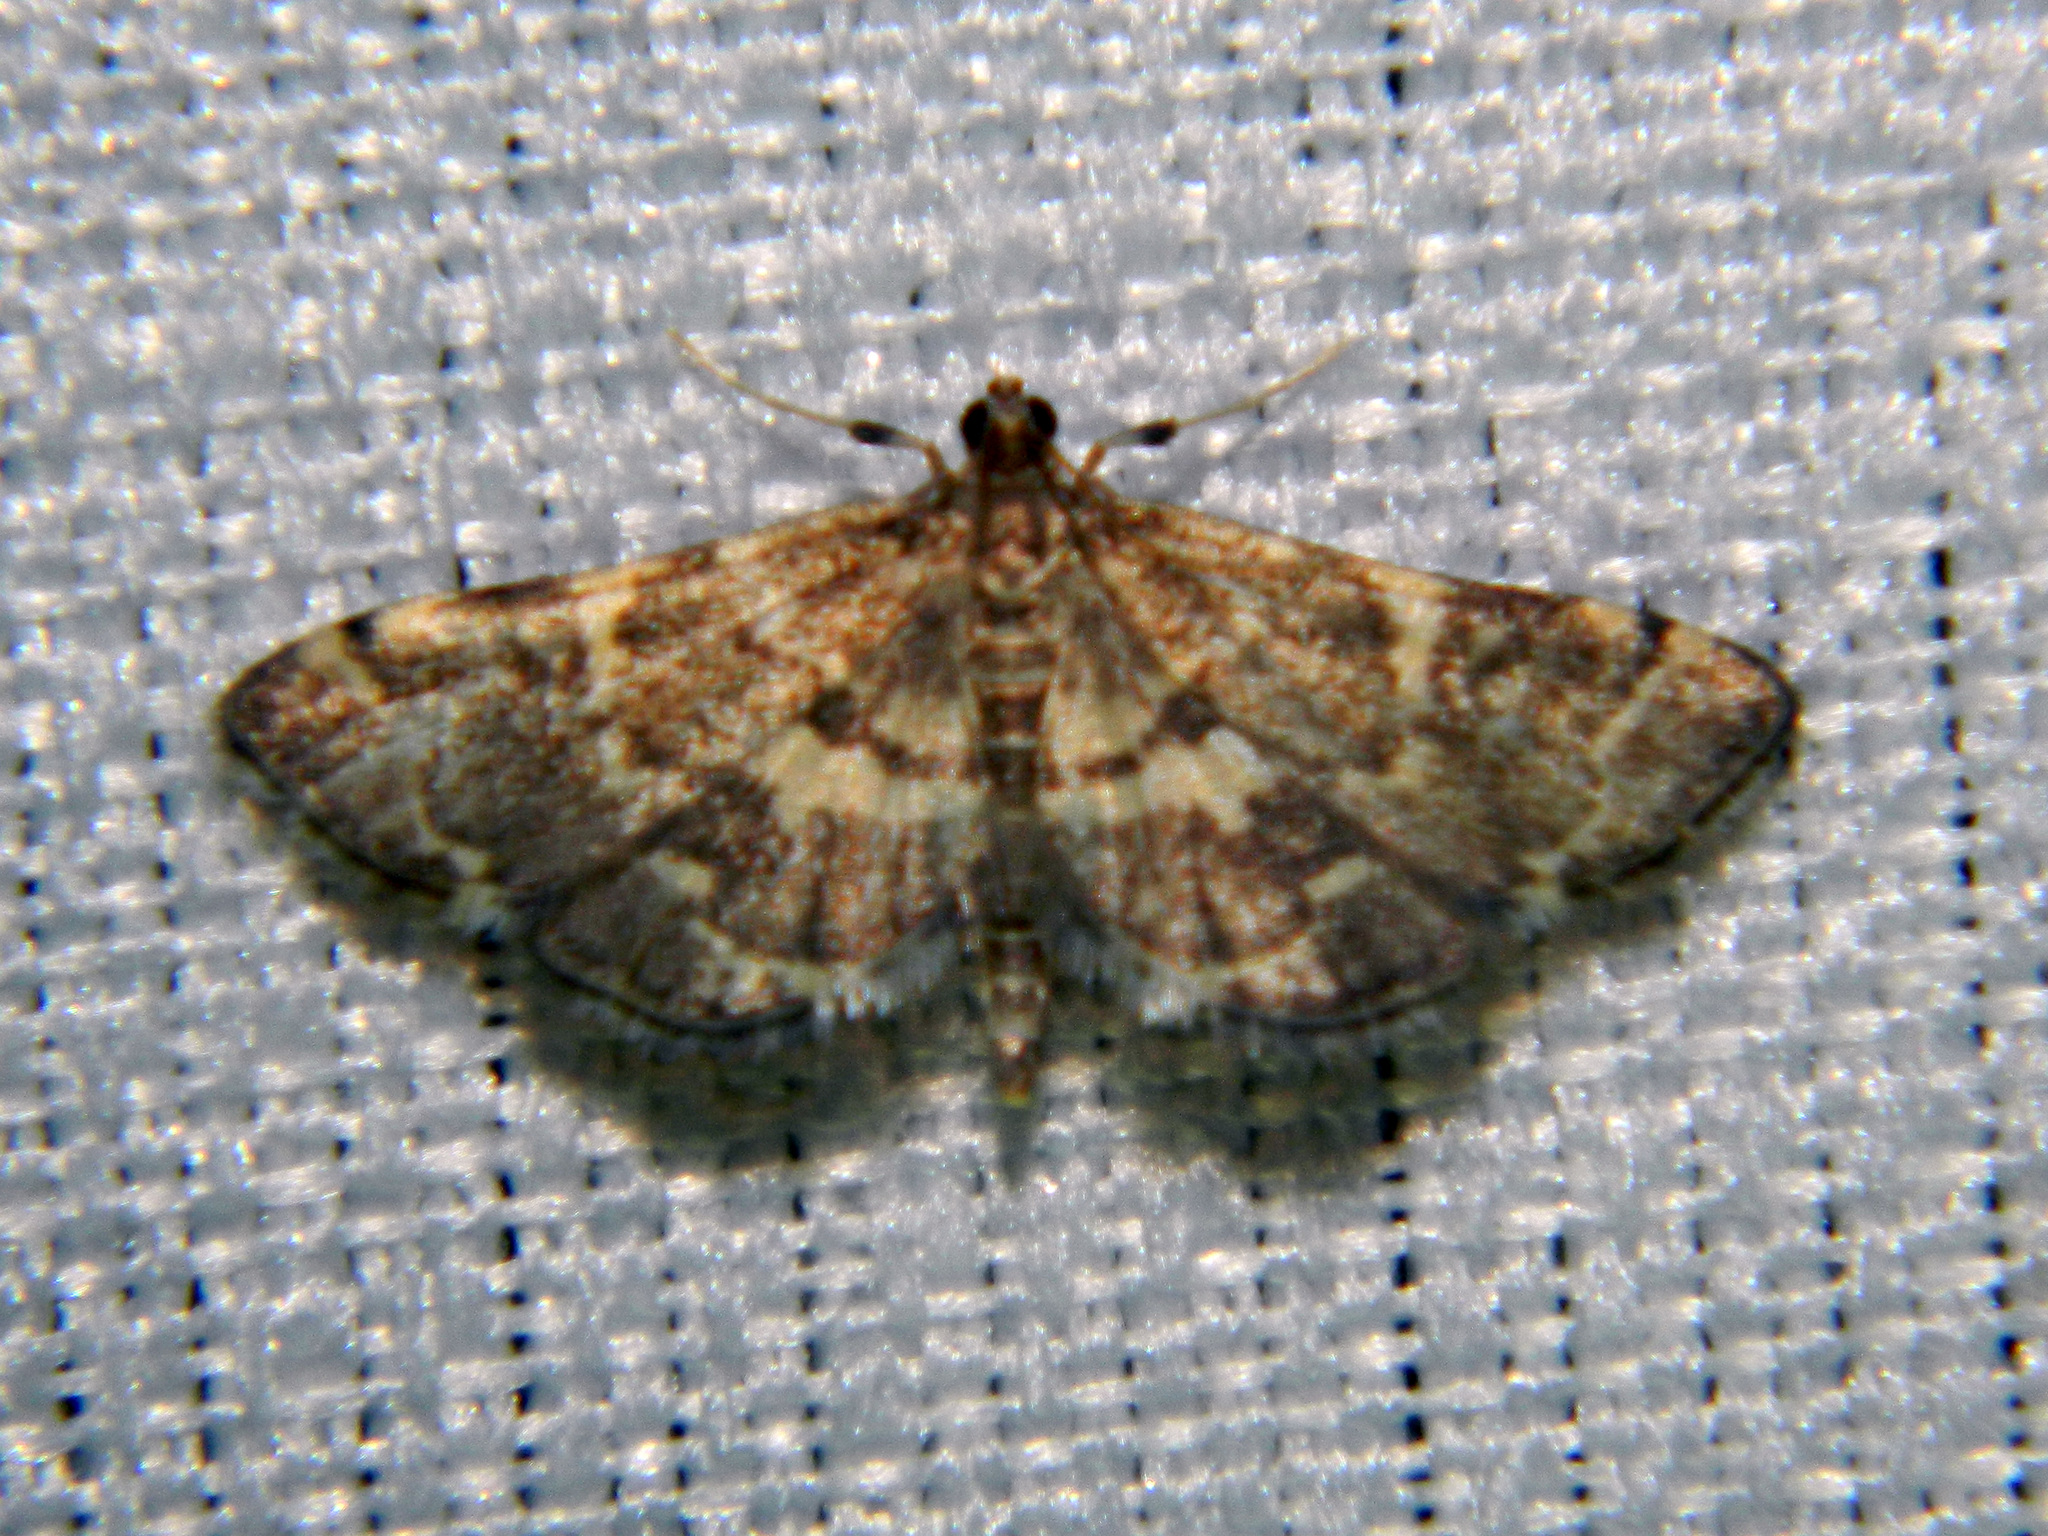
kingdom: Animalia
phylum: Arthropoda
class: Insecta
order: Lepidoptera
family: Crambidae
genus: Anageshna
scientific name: Anageshna primordialis
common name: Yellow-spotted webworm moth
